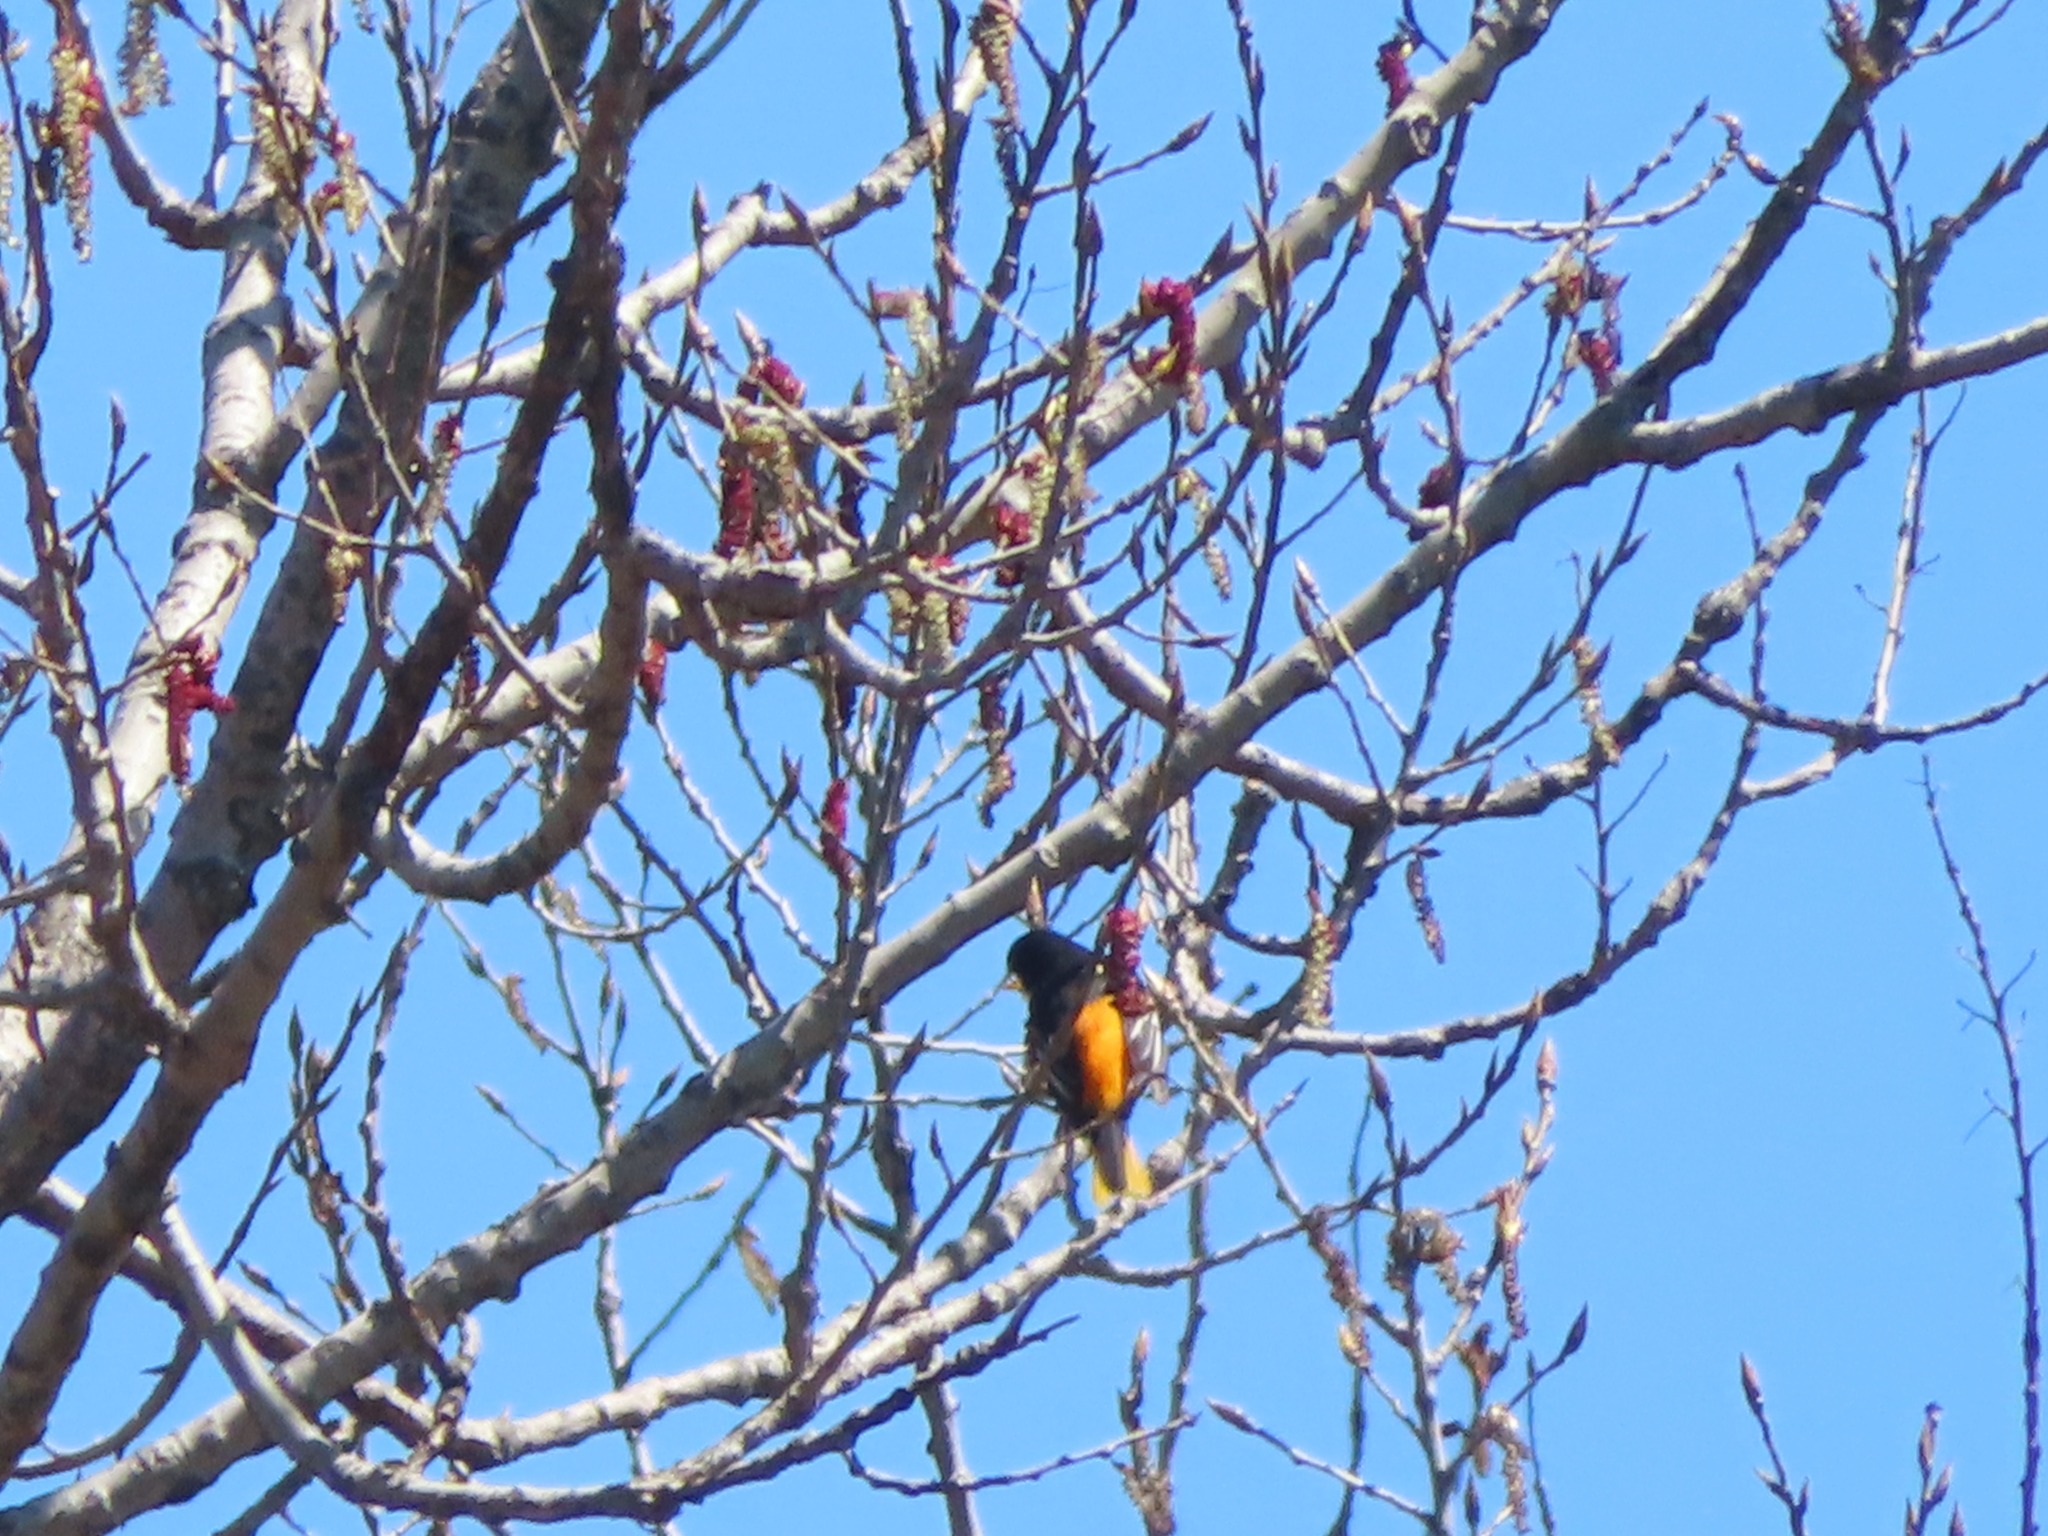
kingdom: Animalia
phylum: Chordata
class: Aves
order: Passeriformes
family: Icteridae
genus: Icterus
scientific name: Icterus galbula
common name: Baltimore oriole
